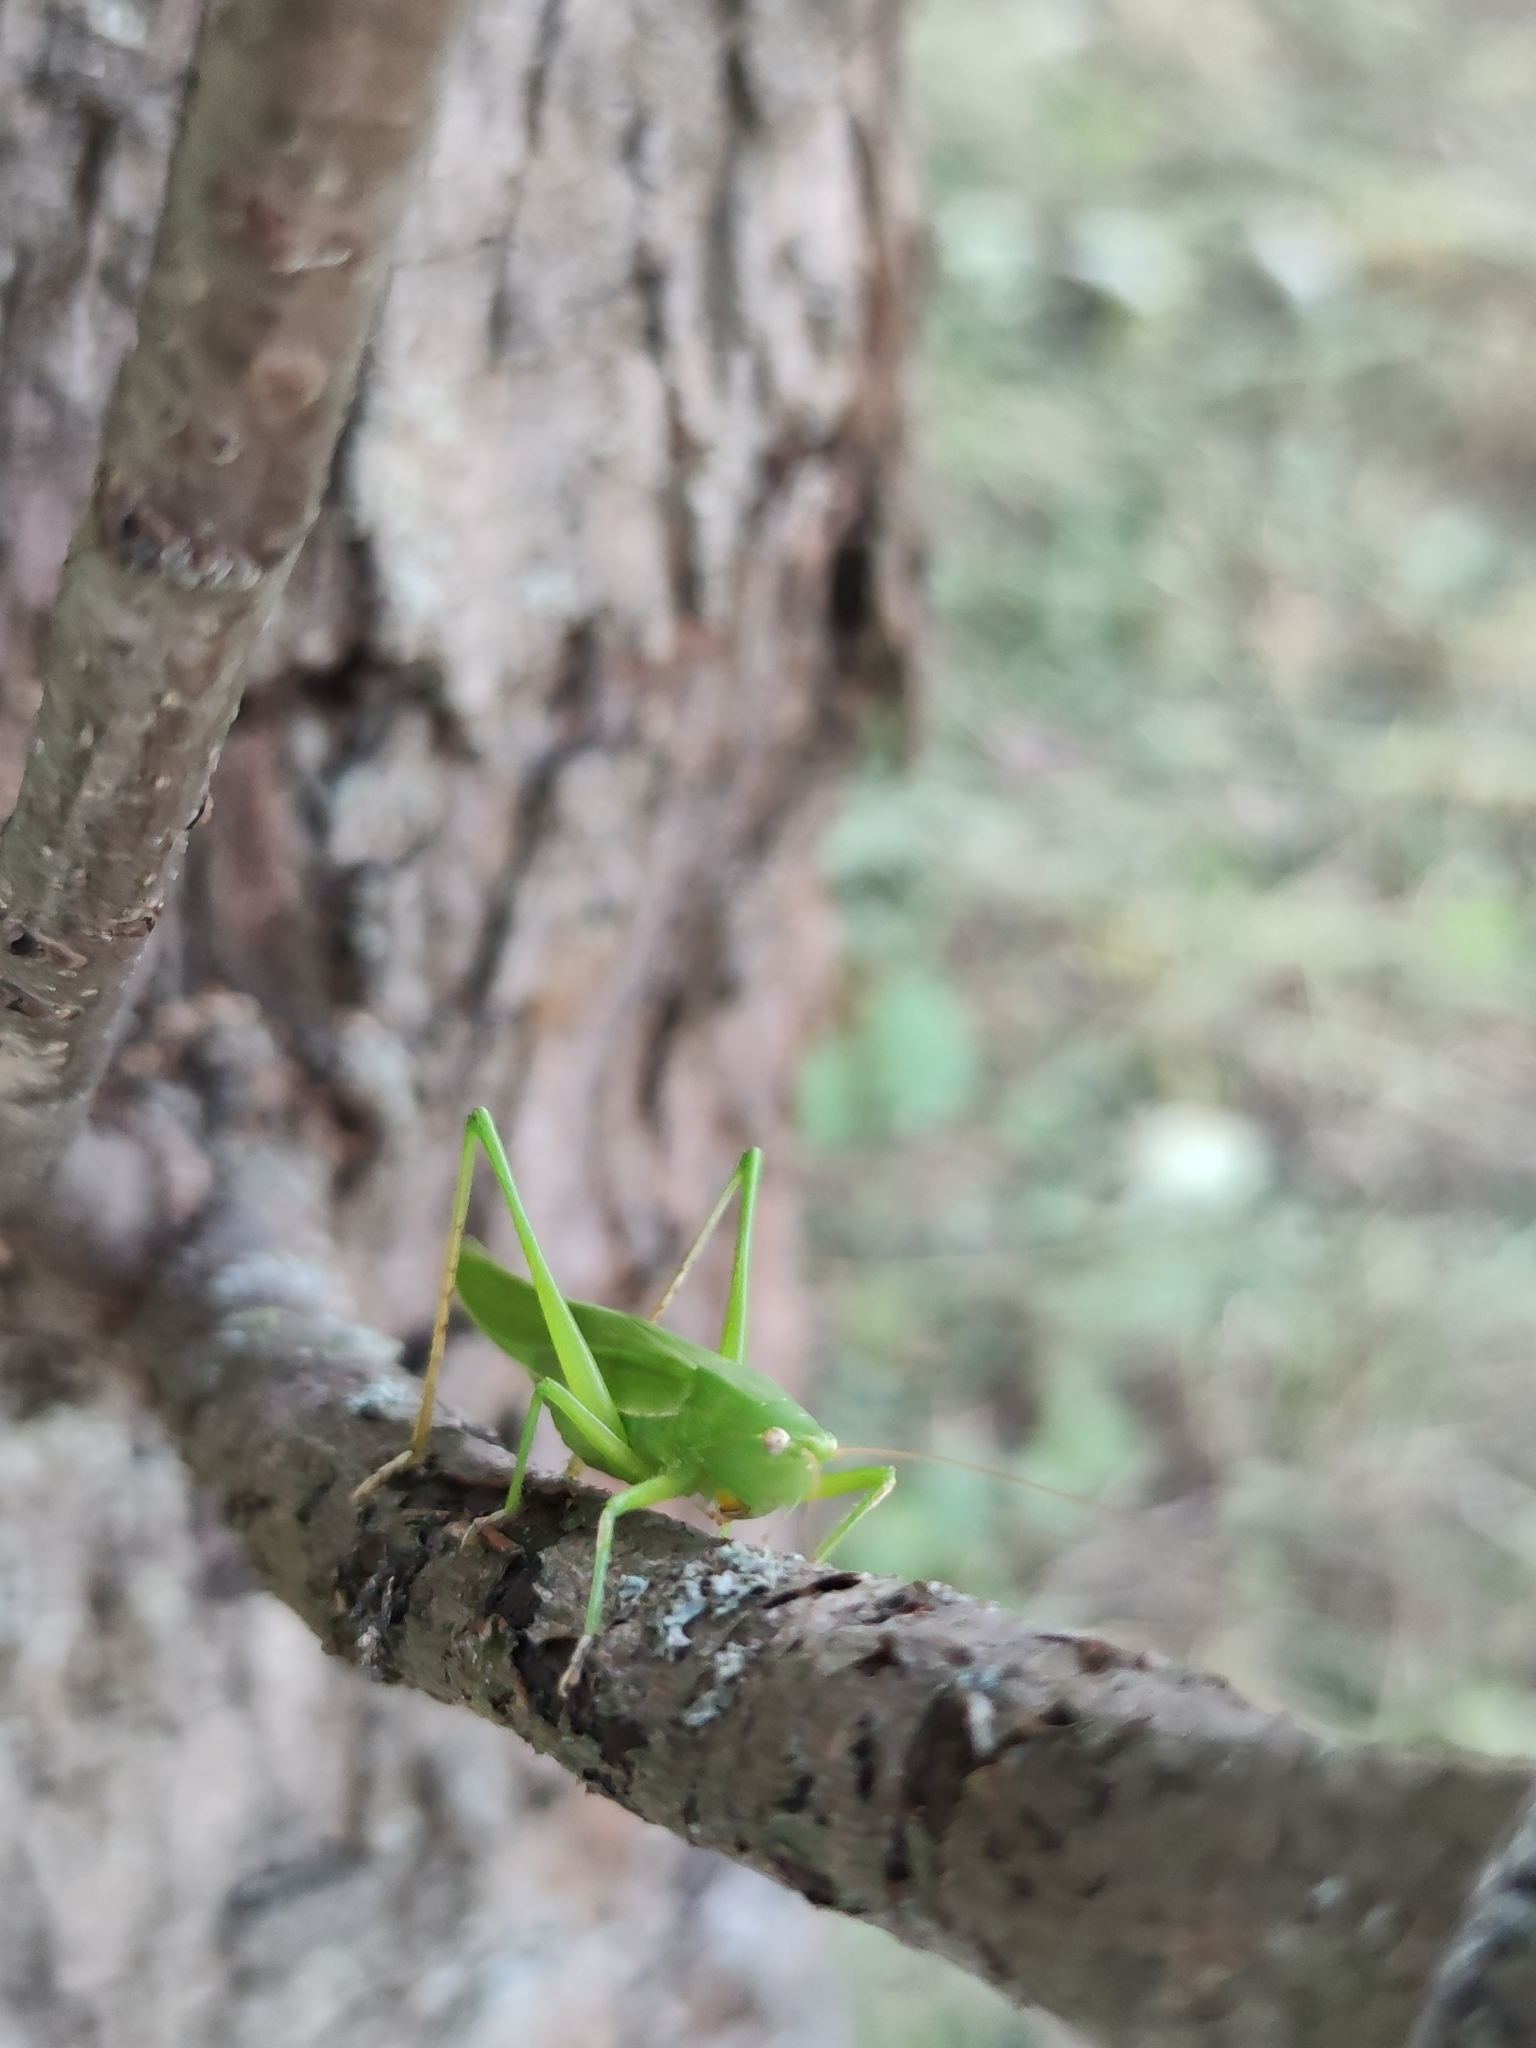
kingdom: Animalia
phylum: Arthropoda
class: Insecta
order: Orthoptera
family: Tettigoniidae
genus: Ruspolia
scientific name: Ruspolia nitidula
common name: Large conehead
